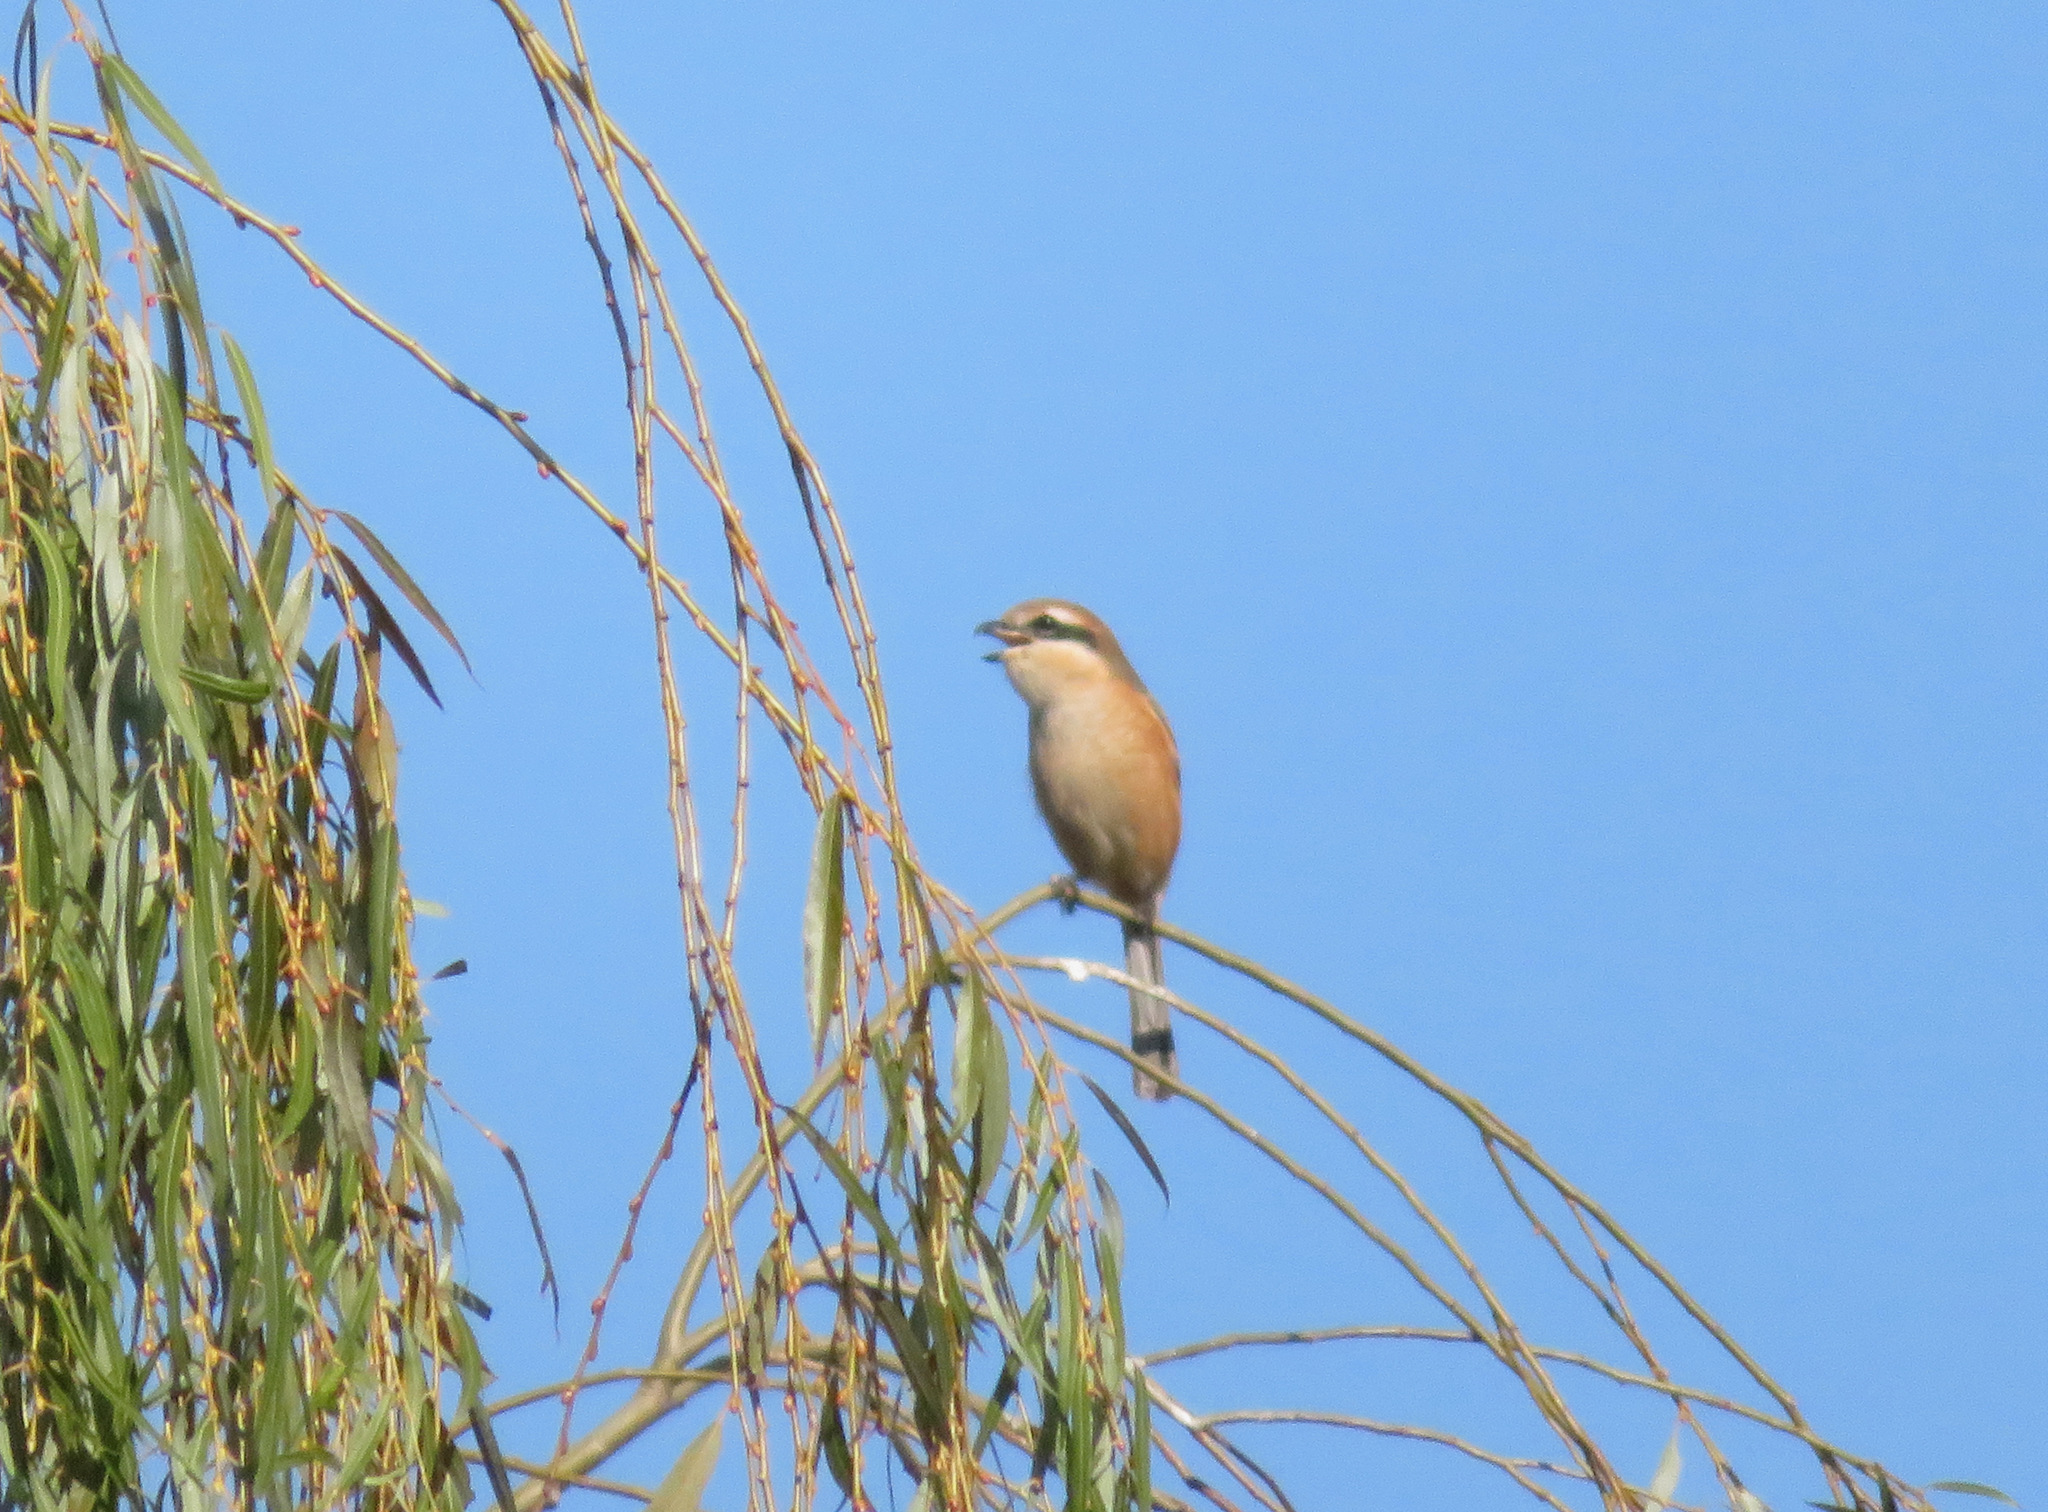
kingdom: Animalia
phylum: Chordata
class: Aves
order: Passeriformes
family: Laniidae
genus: Lanius
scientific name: Lanius bucephalus
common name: Bull-headed shrike
